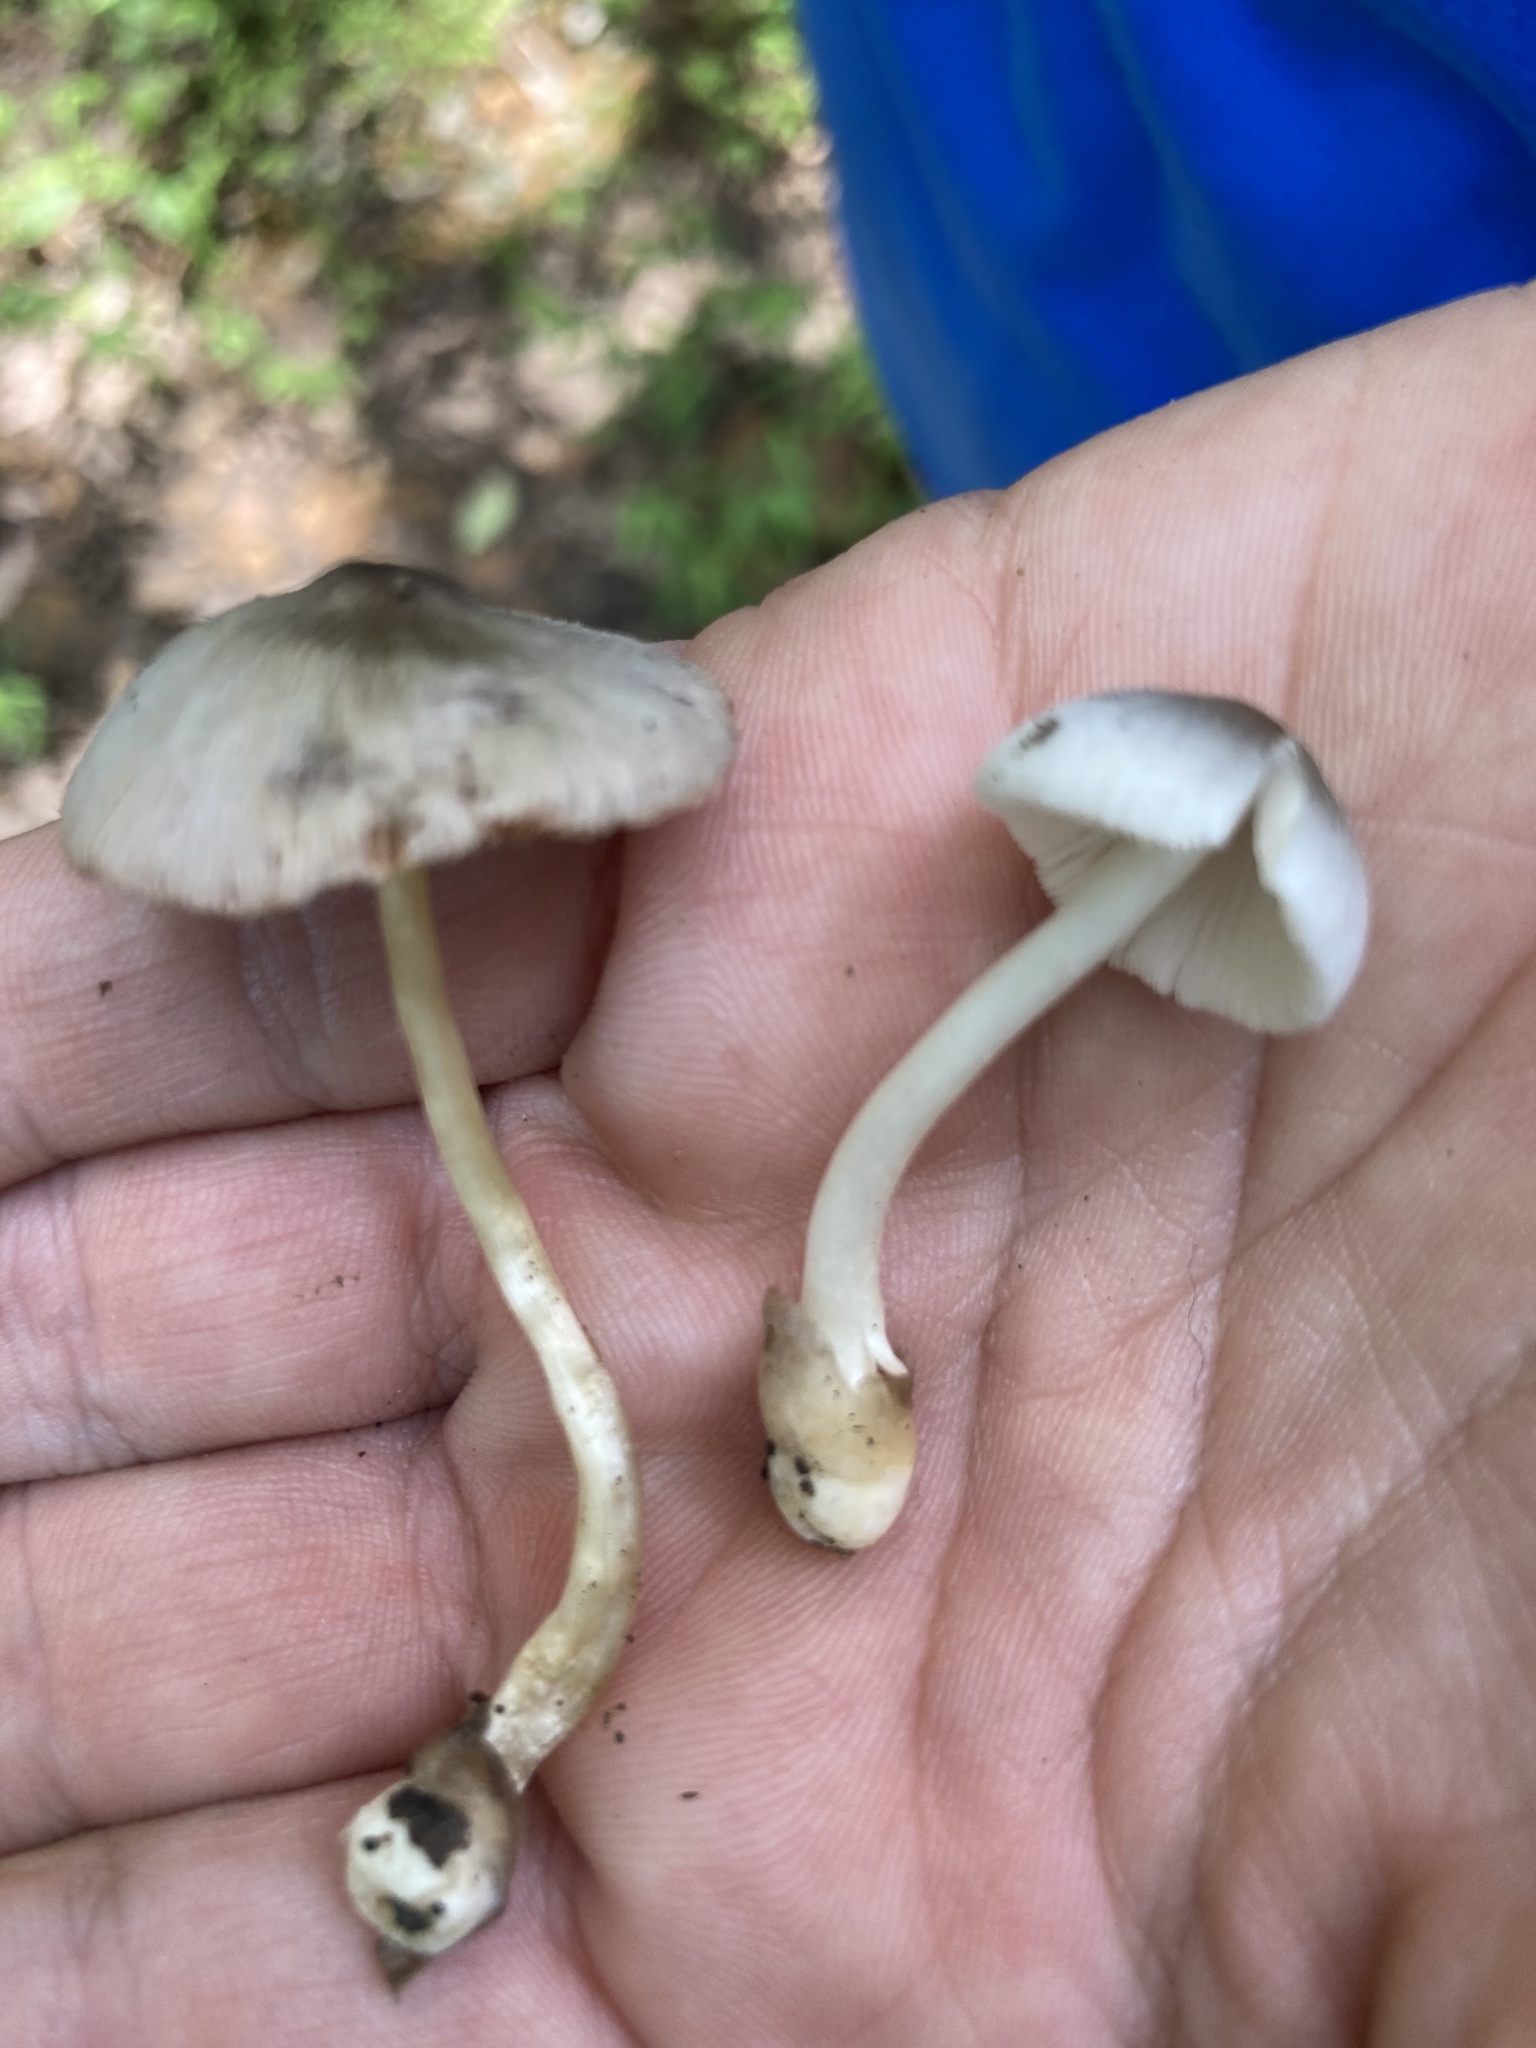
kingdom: Fungi
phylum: Basidiomycota
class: Agaricomycetes
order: Agaricales
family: Pluteaceae
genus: Volvariella
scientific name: Volvariella nigrodisca
